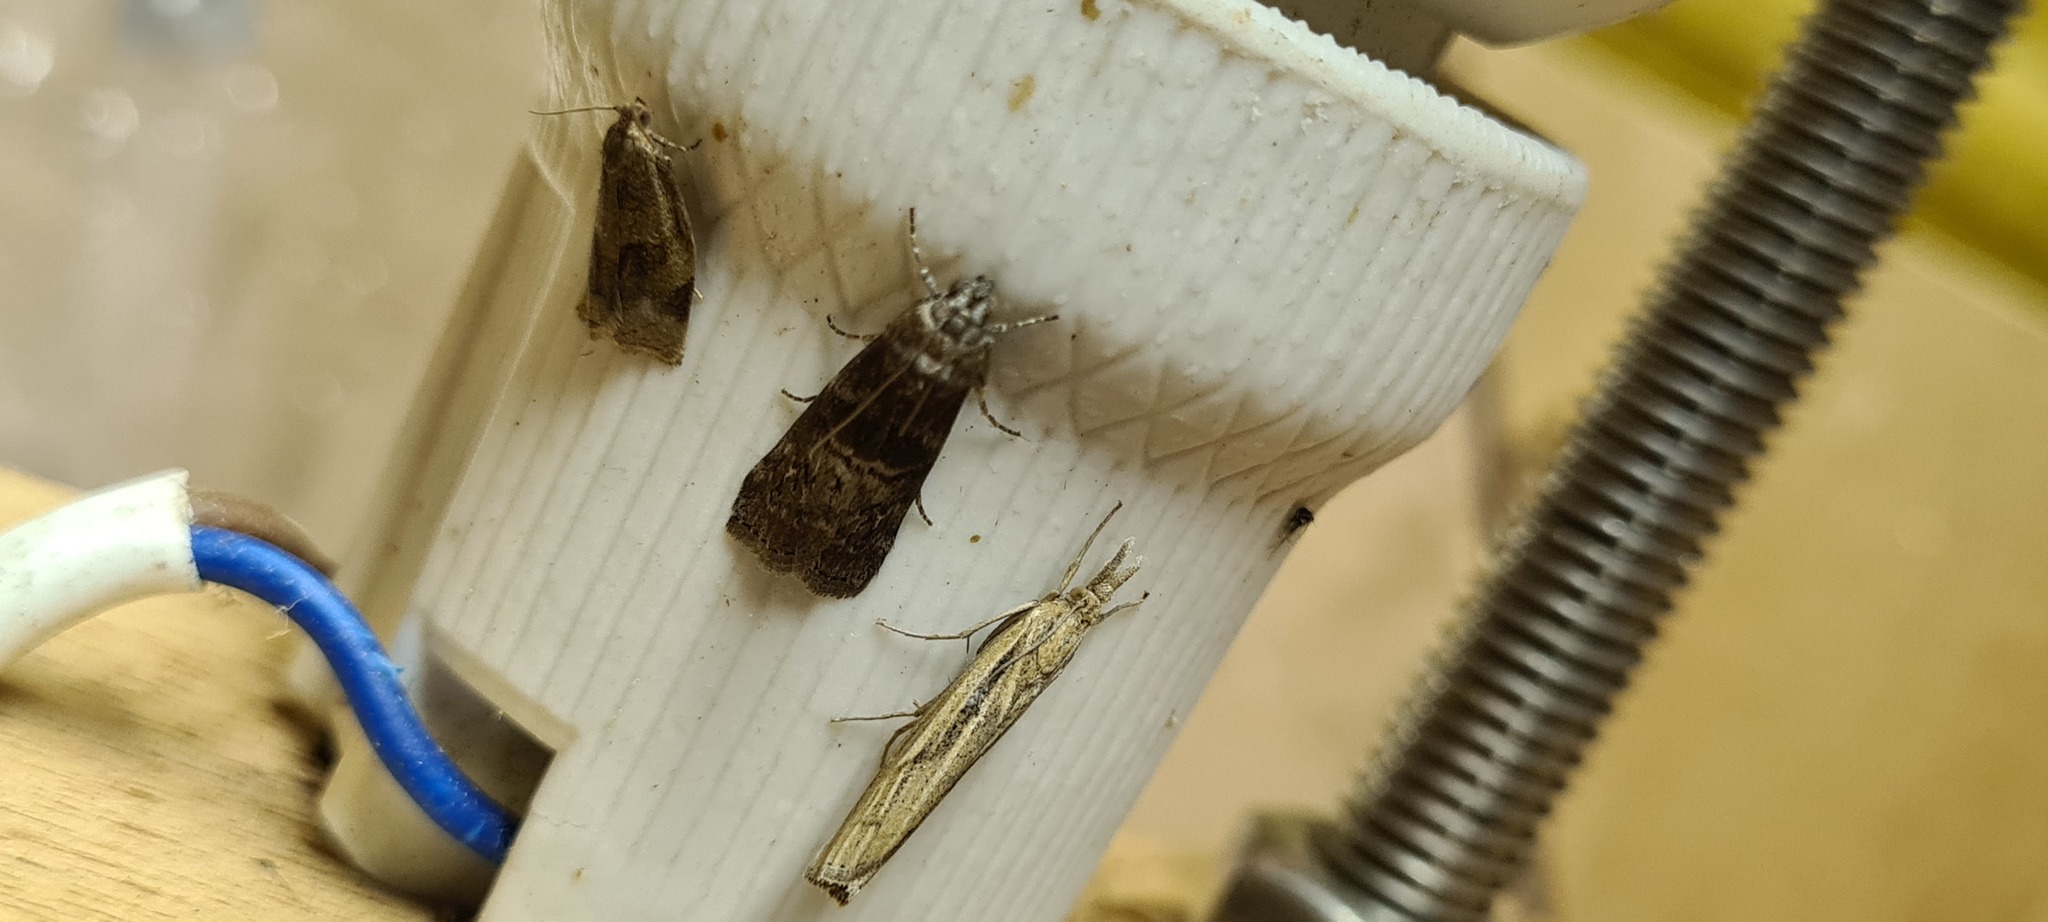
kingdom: Animalia
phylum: Arthropoda
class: Insecta
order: Lepidoptera
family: Pyralidae
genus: Phycita
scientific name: Phycita roborella
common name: Dotted oak knot-horn
